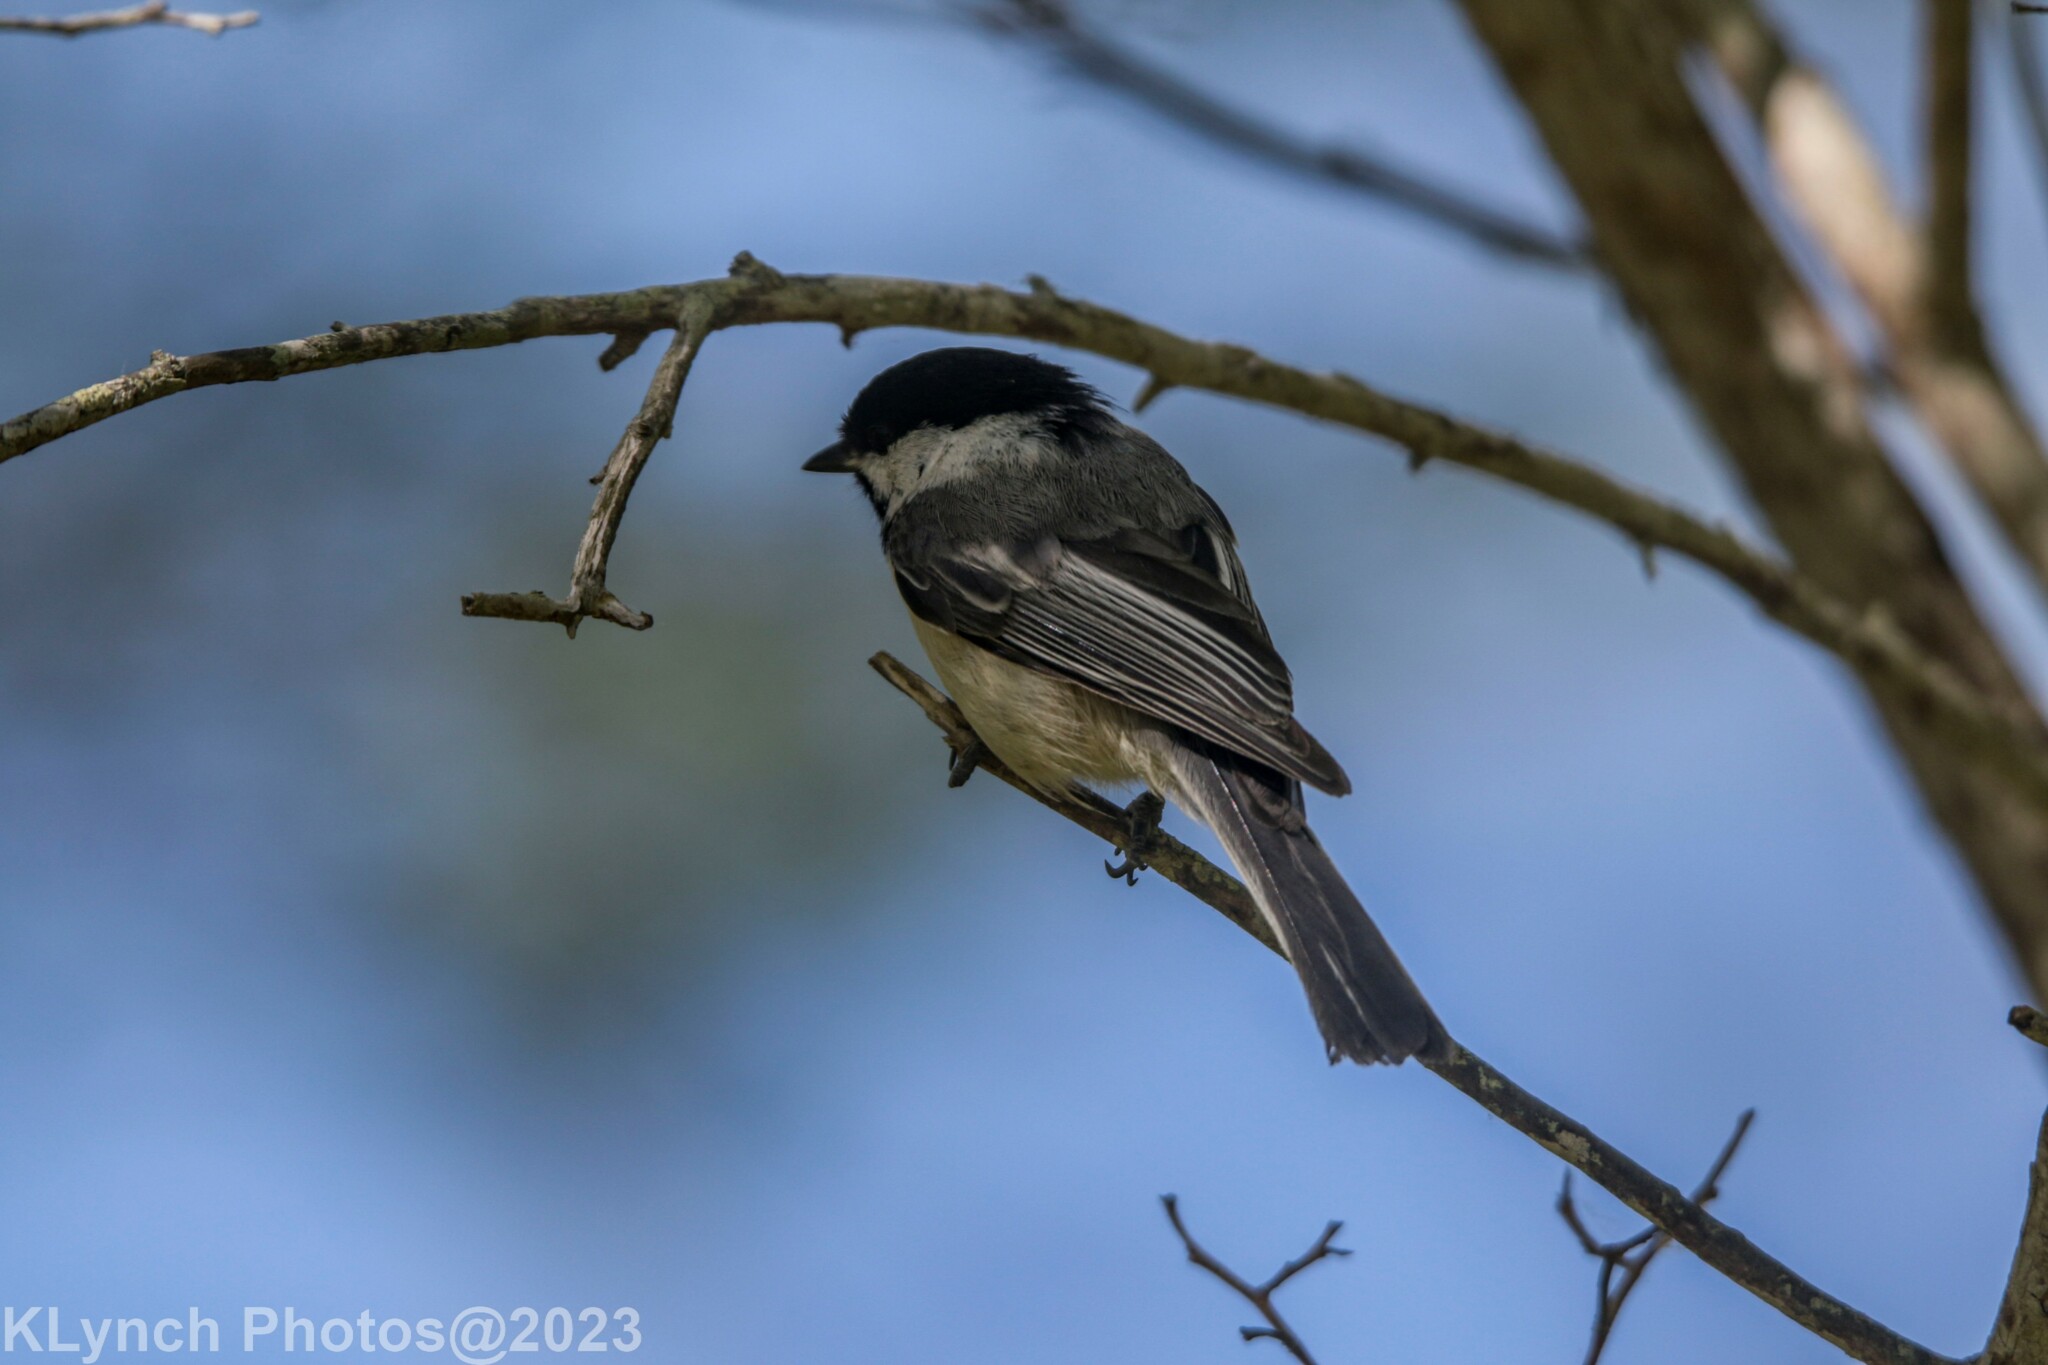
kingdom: Animalia
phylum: Chordata
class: Aves
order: Passeriformes
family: Paridae
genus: Poecile
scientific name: Poecile atricapillus
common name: Black-capped chickadee
